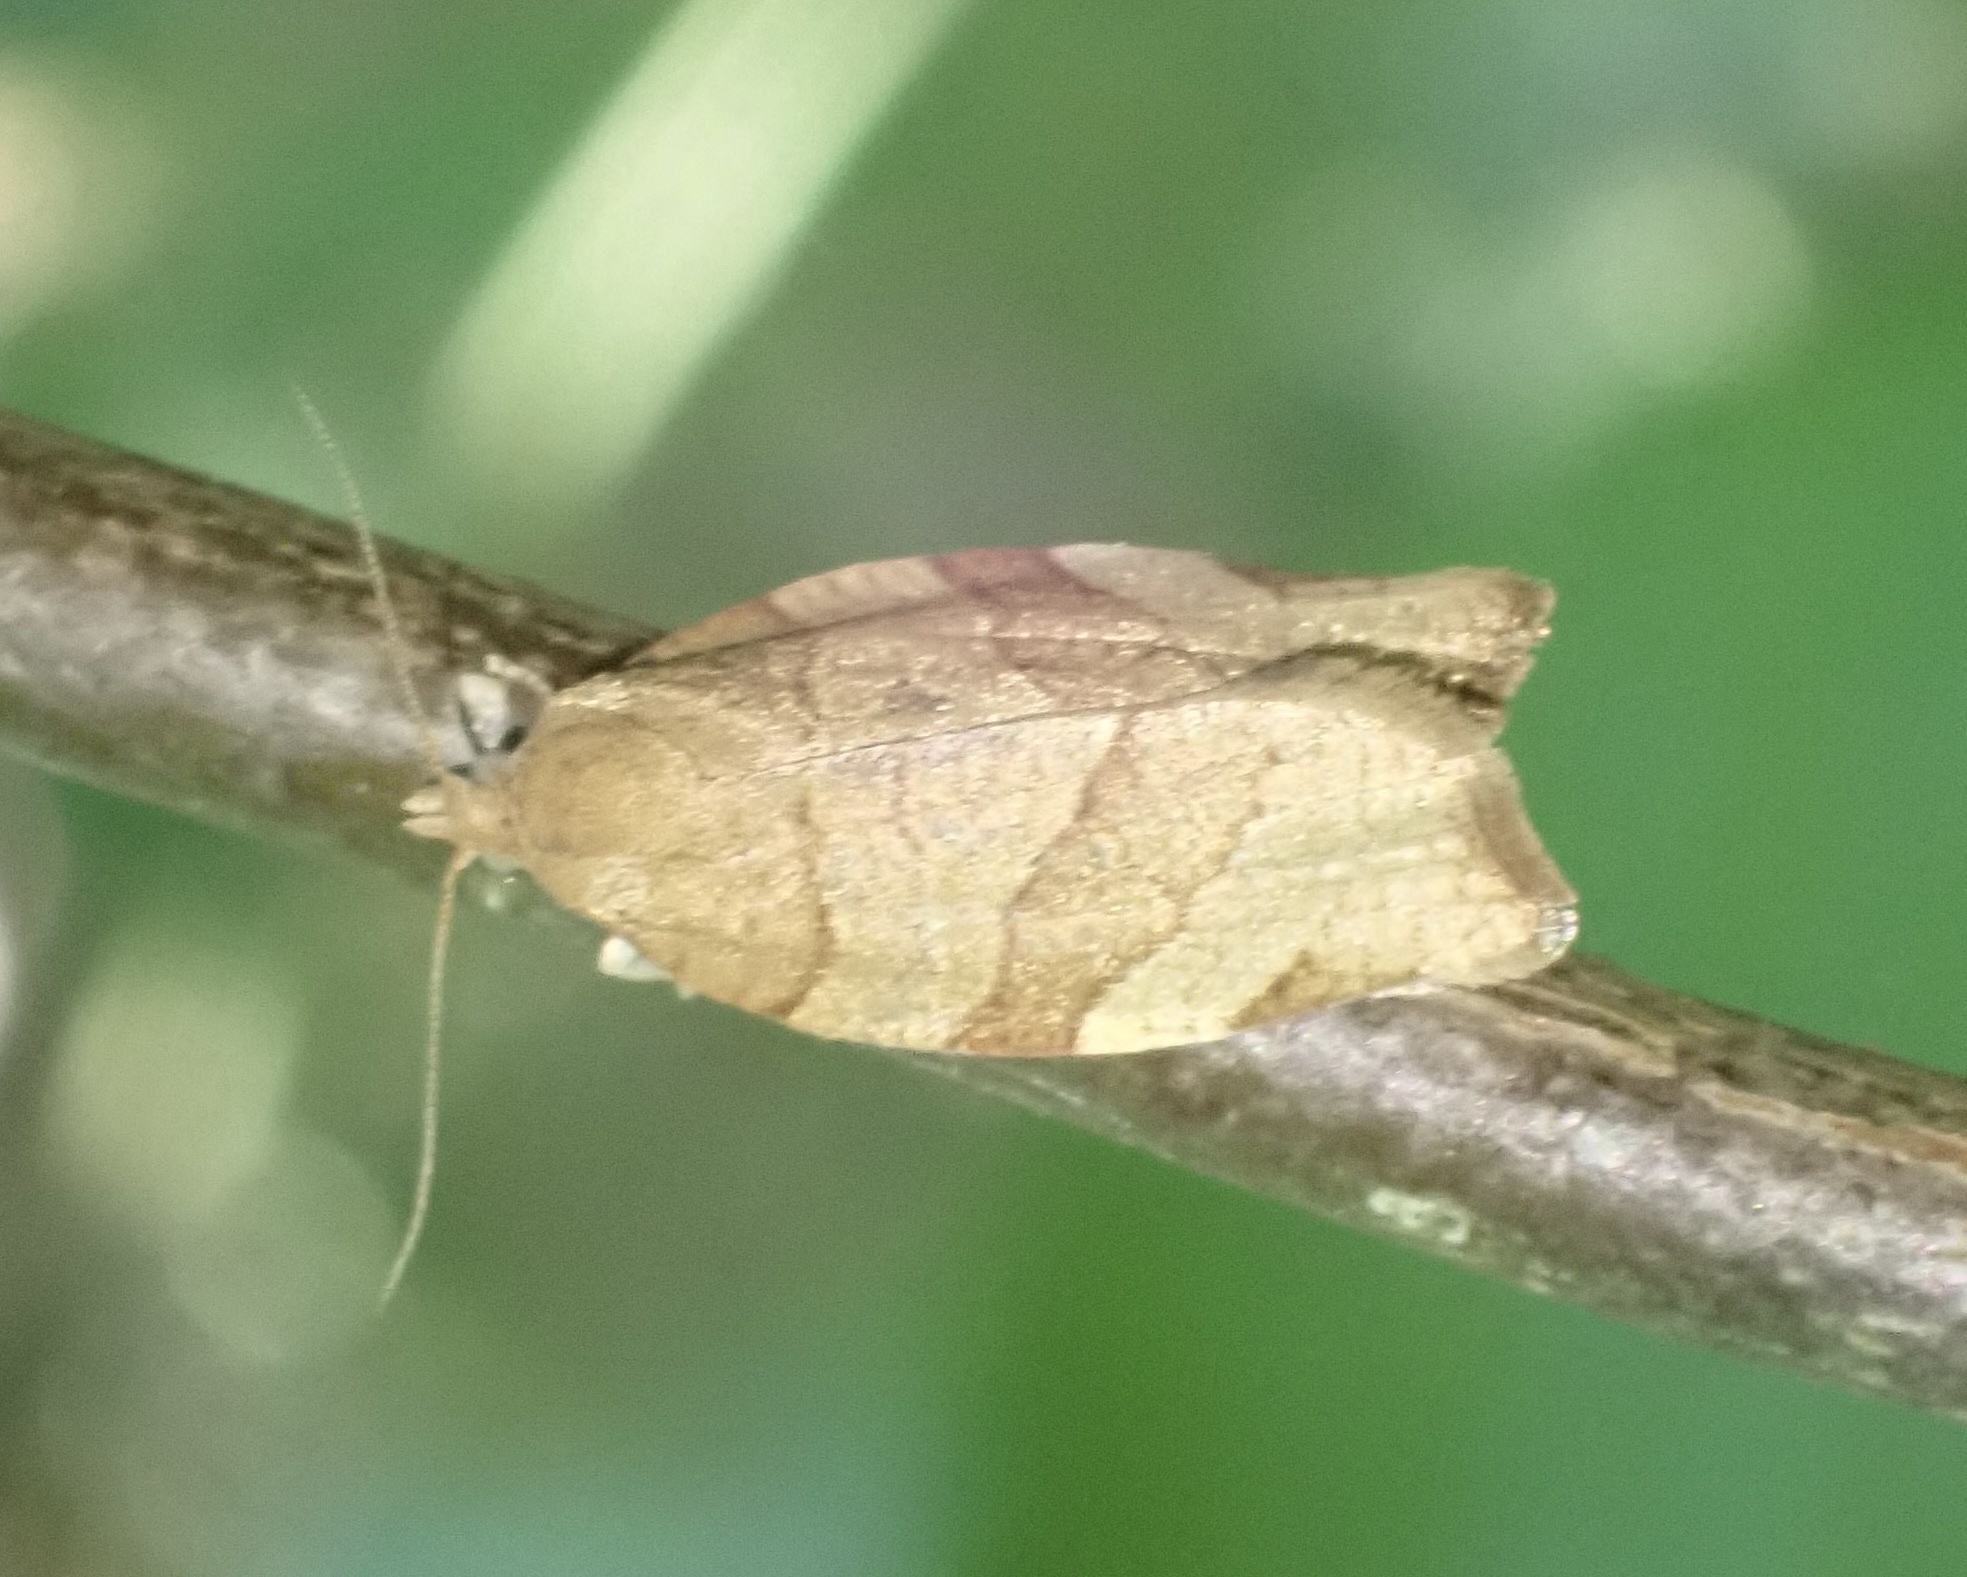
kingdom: Animalia
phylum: Arthropoda
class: Insecta
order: Lepidoptera
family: Tortricidae
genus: Pandemis
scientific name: Pandemis cerasana
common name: Barred fruit-tree tortrix
